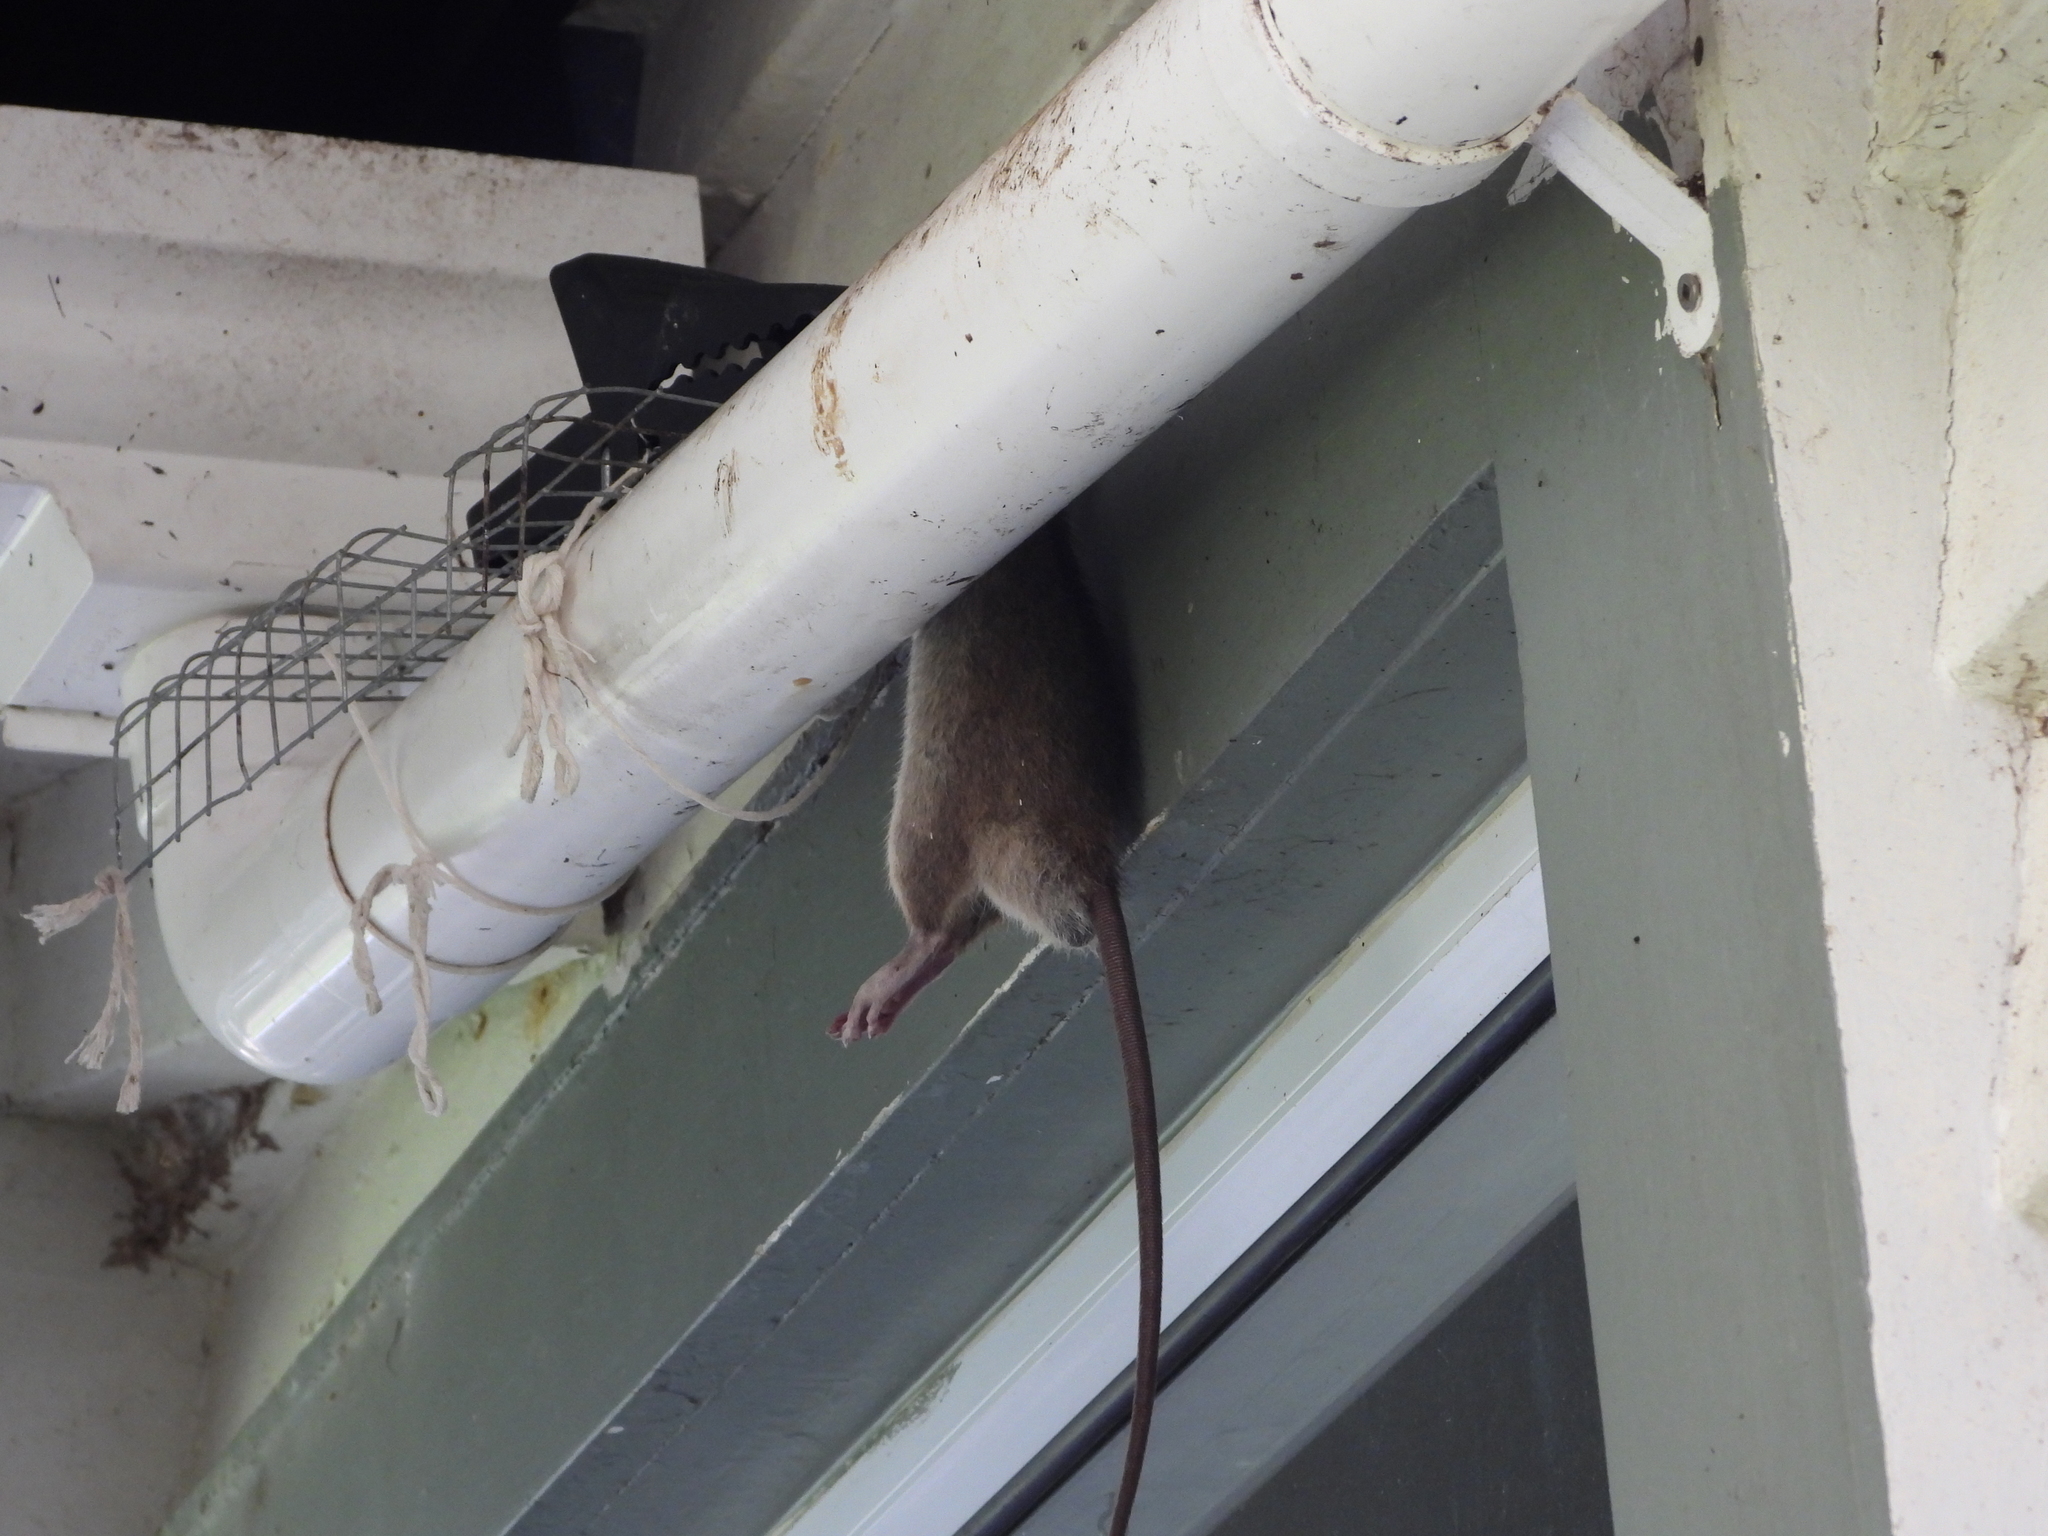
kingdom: Animalia
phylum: Chordata
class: Mammalia
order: Rodentia
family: Muridae
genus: Rattus
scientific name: Rattus rattus
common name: Black rat
